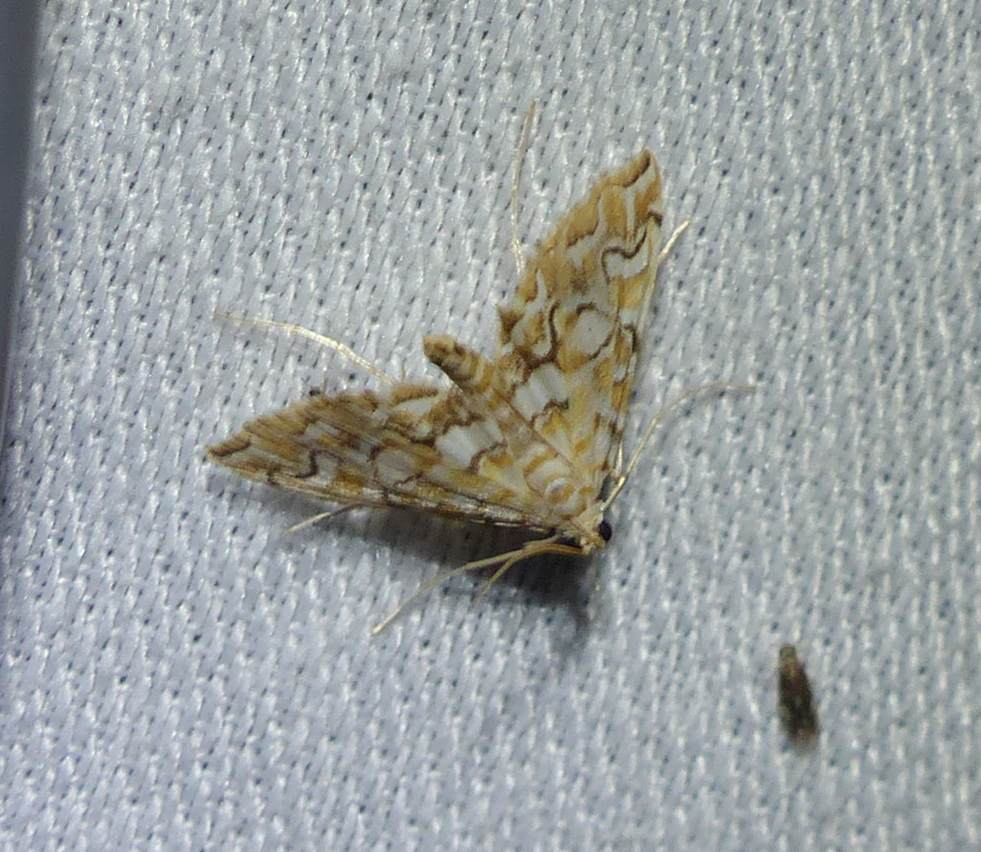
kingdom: Animalia
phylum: Arthropoda
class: Insecta
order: Lepidoptera
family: Crambidae
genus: Elophila
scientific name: Elophila icciusalis
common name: Pondside pyralid moth
